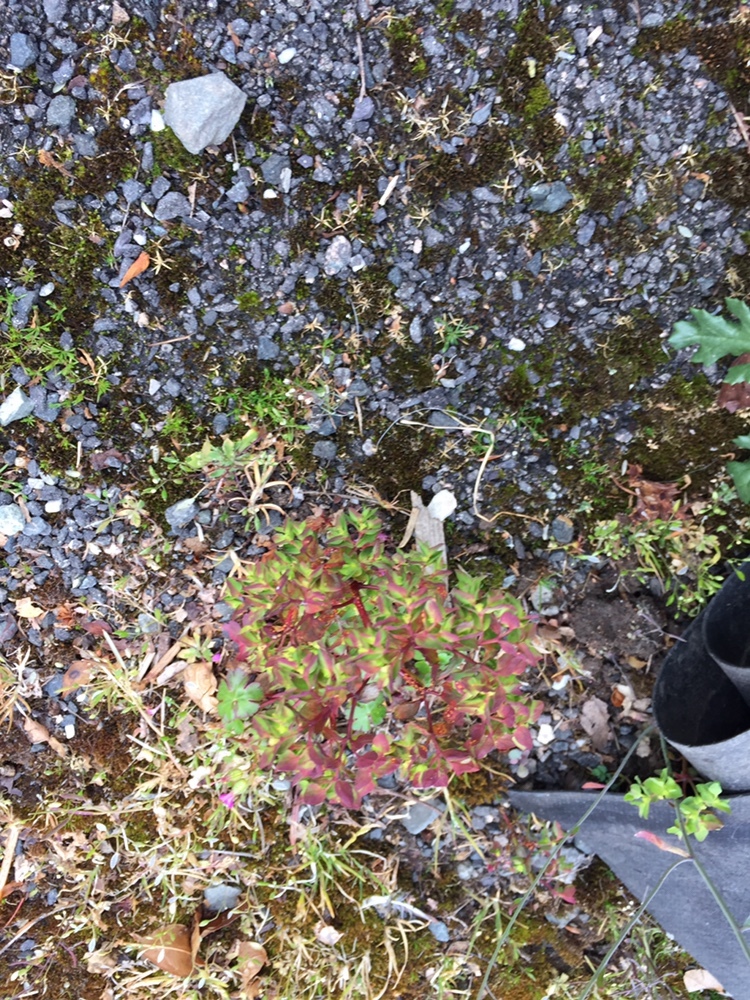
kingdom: Plantae
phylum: Tracheophyta
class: Magnoliopsida
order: Malpighiales
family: Euphorbiaceae
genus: Euphorbia
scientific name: Euphorbia peplus
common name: Petty spurge
